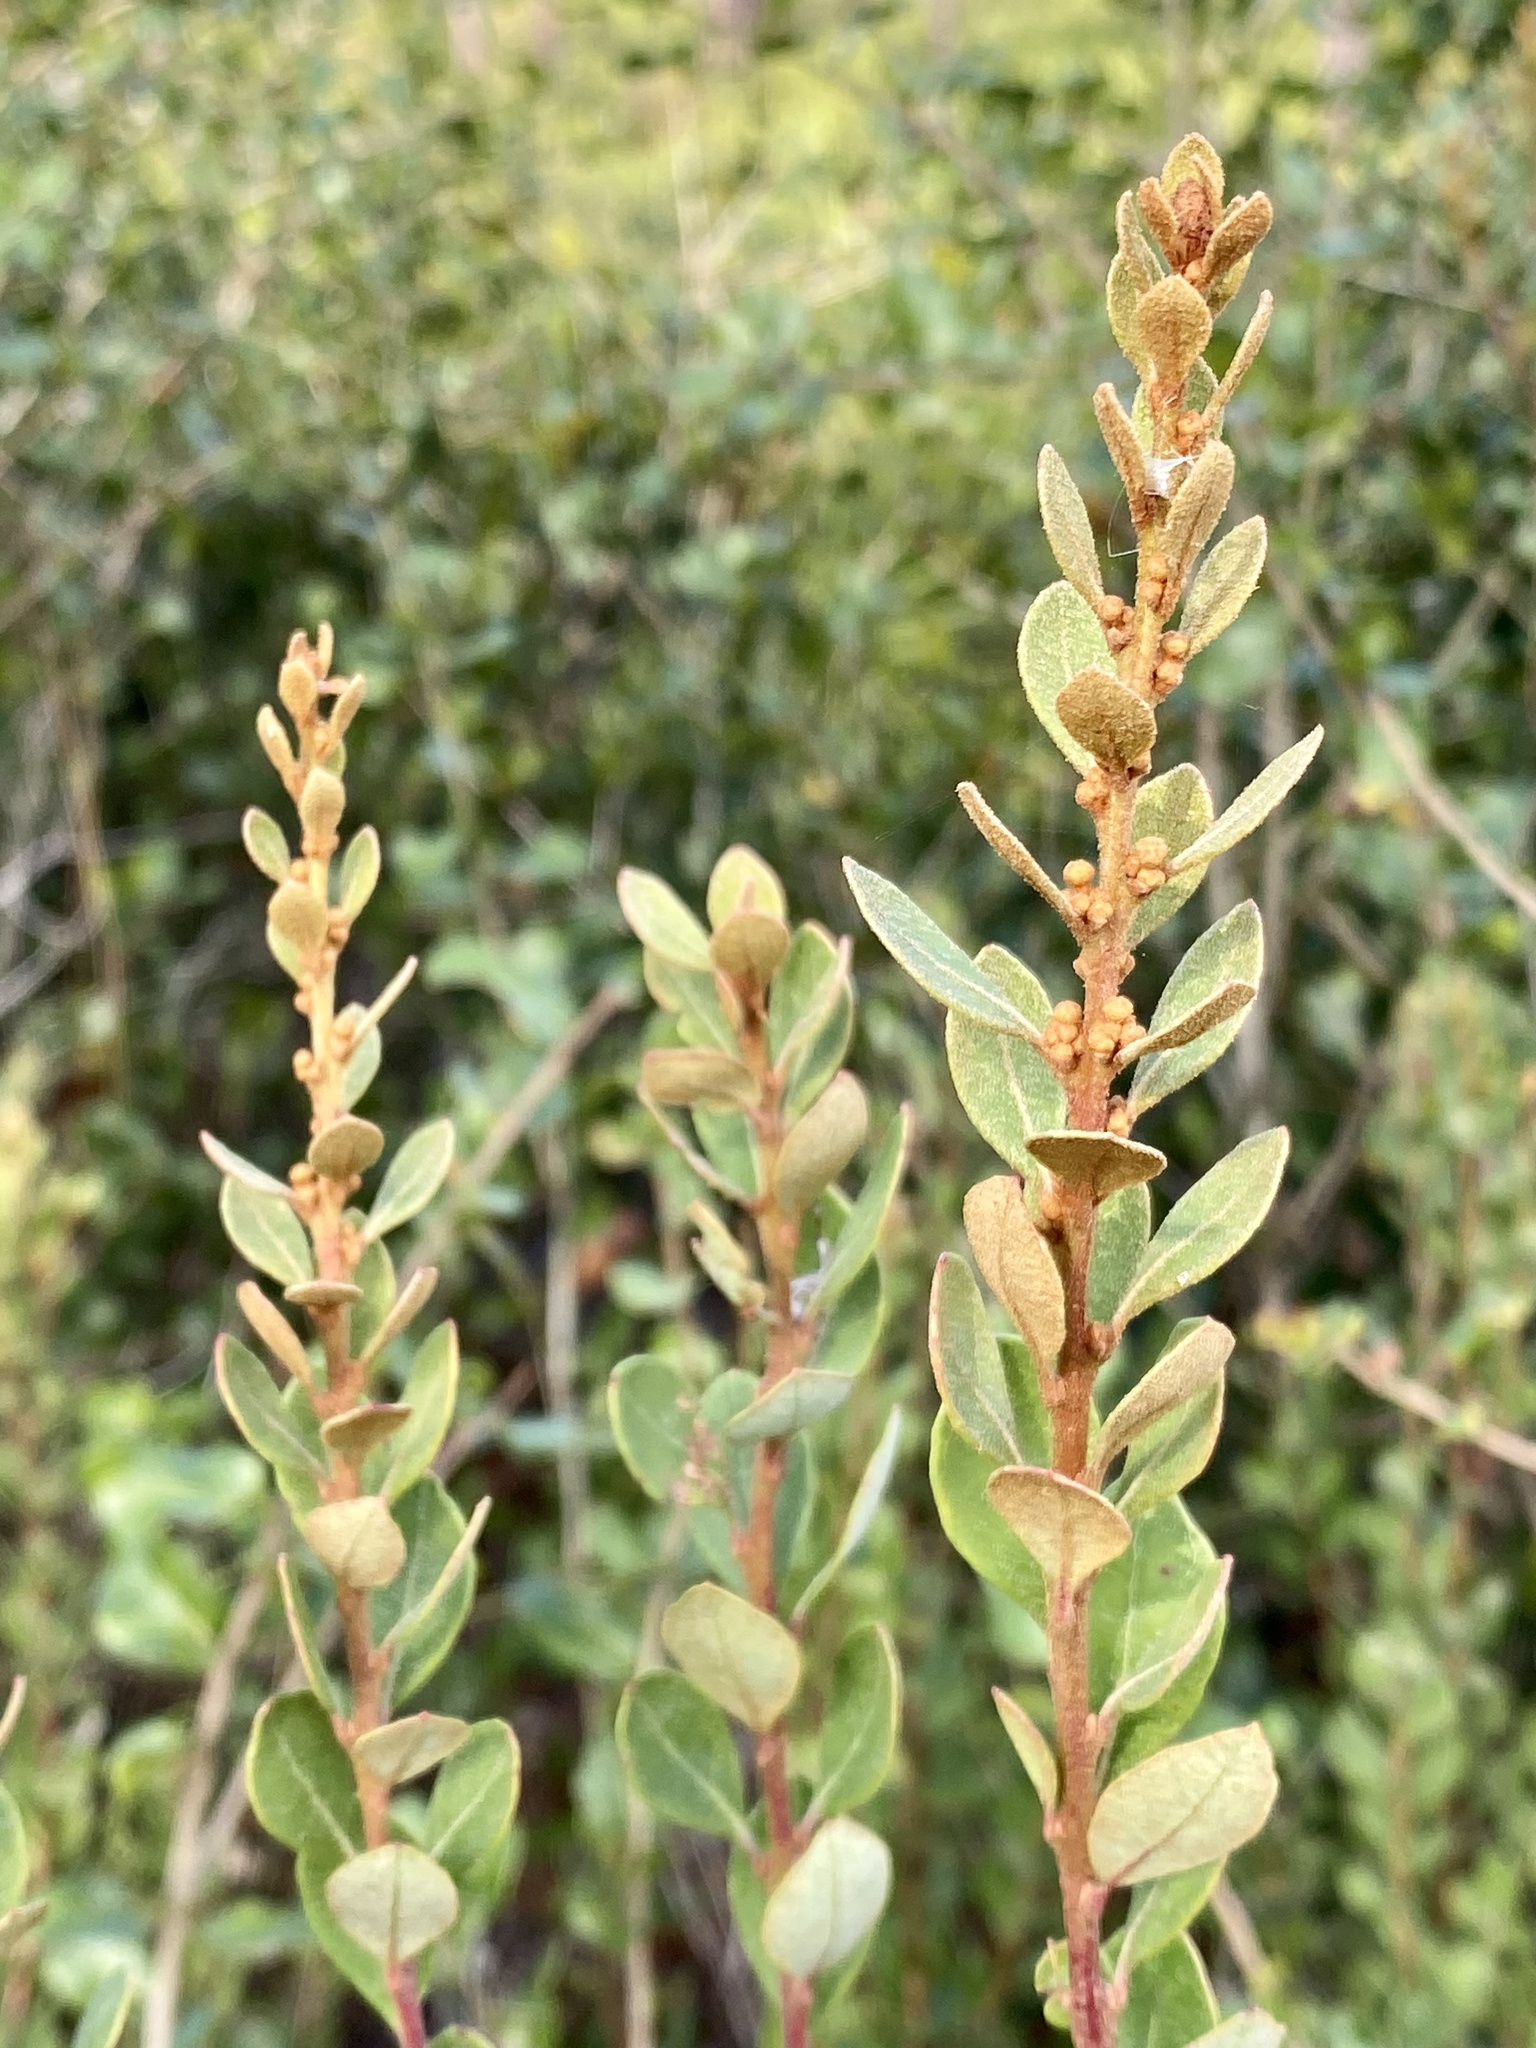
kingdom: Plantae
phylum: Tracheophyta
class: Magnoliopsida
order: Ericales
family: Ericaceae
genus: Lyonia
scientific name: Lyonia fruticosa
